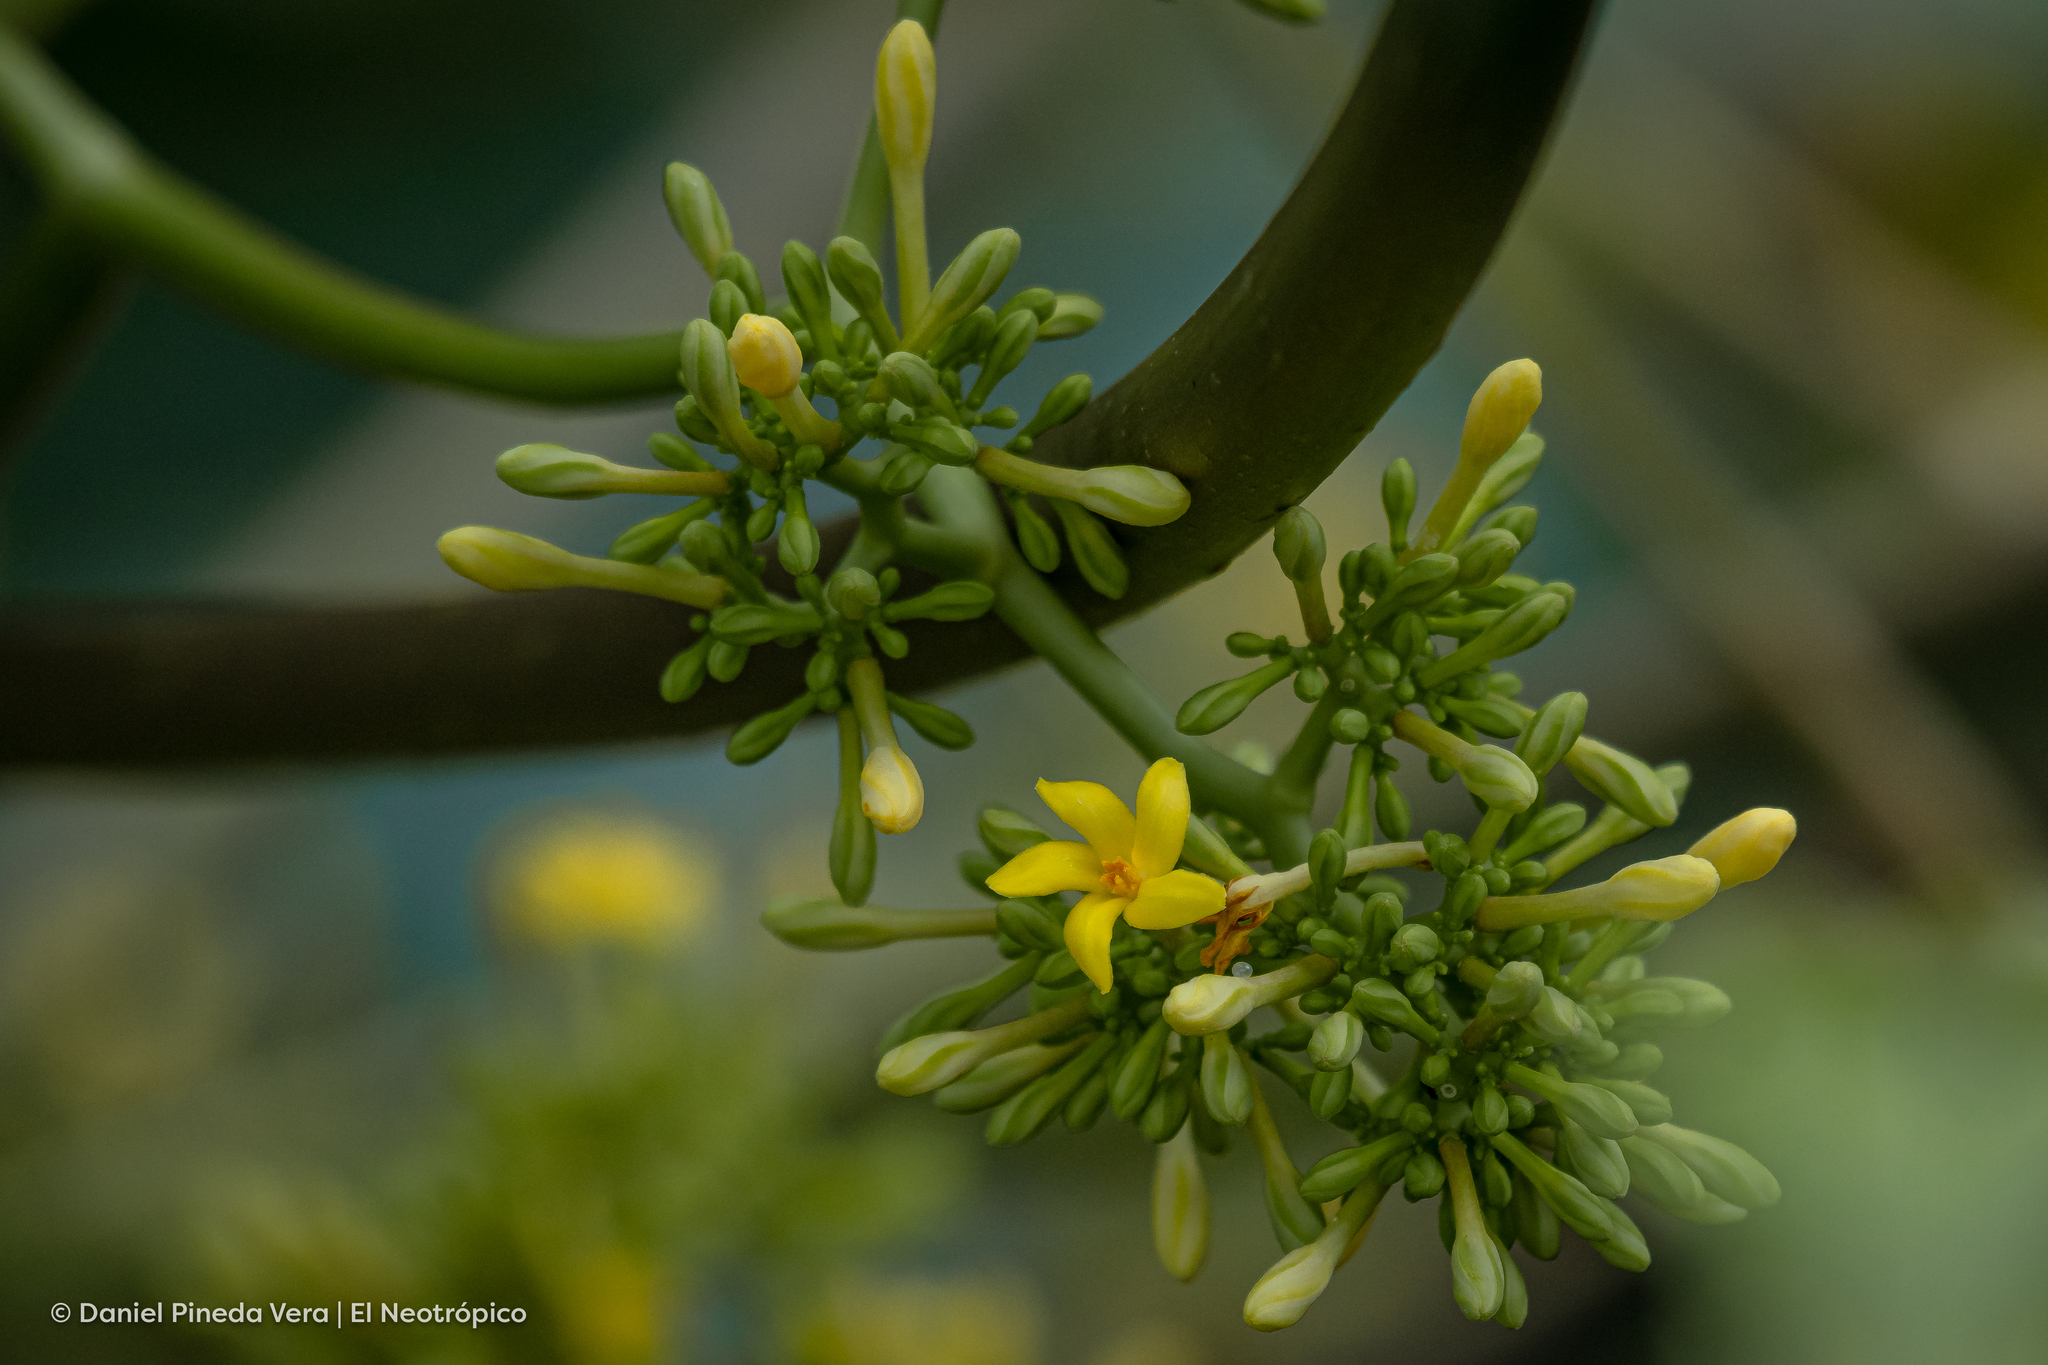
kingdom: Plantae
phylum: Tracheophyta
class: Magnoliopsida
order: Brassicales
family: Caricaceae
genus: Carica
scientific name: Carica papaya
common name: Papaya
